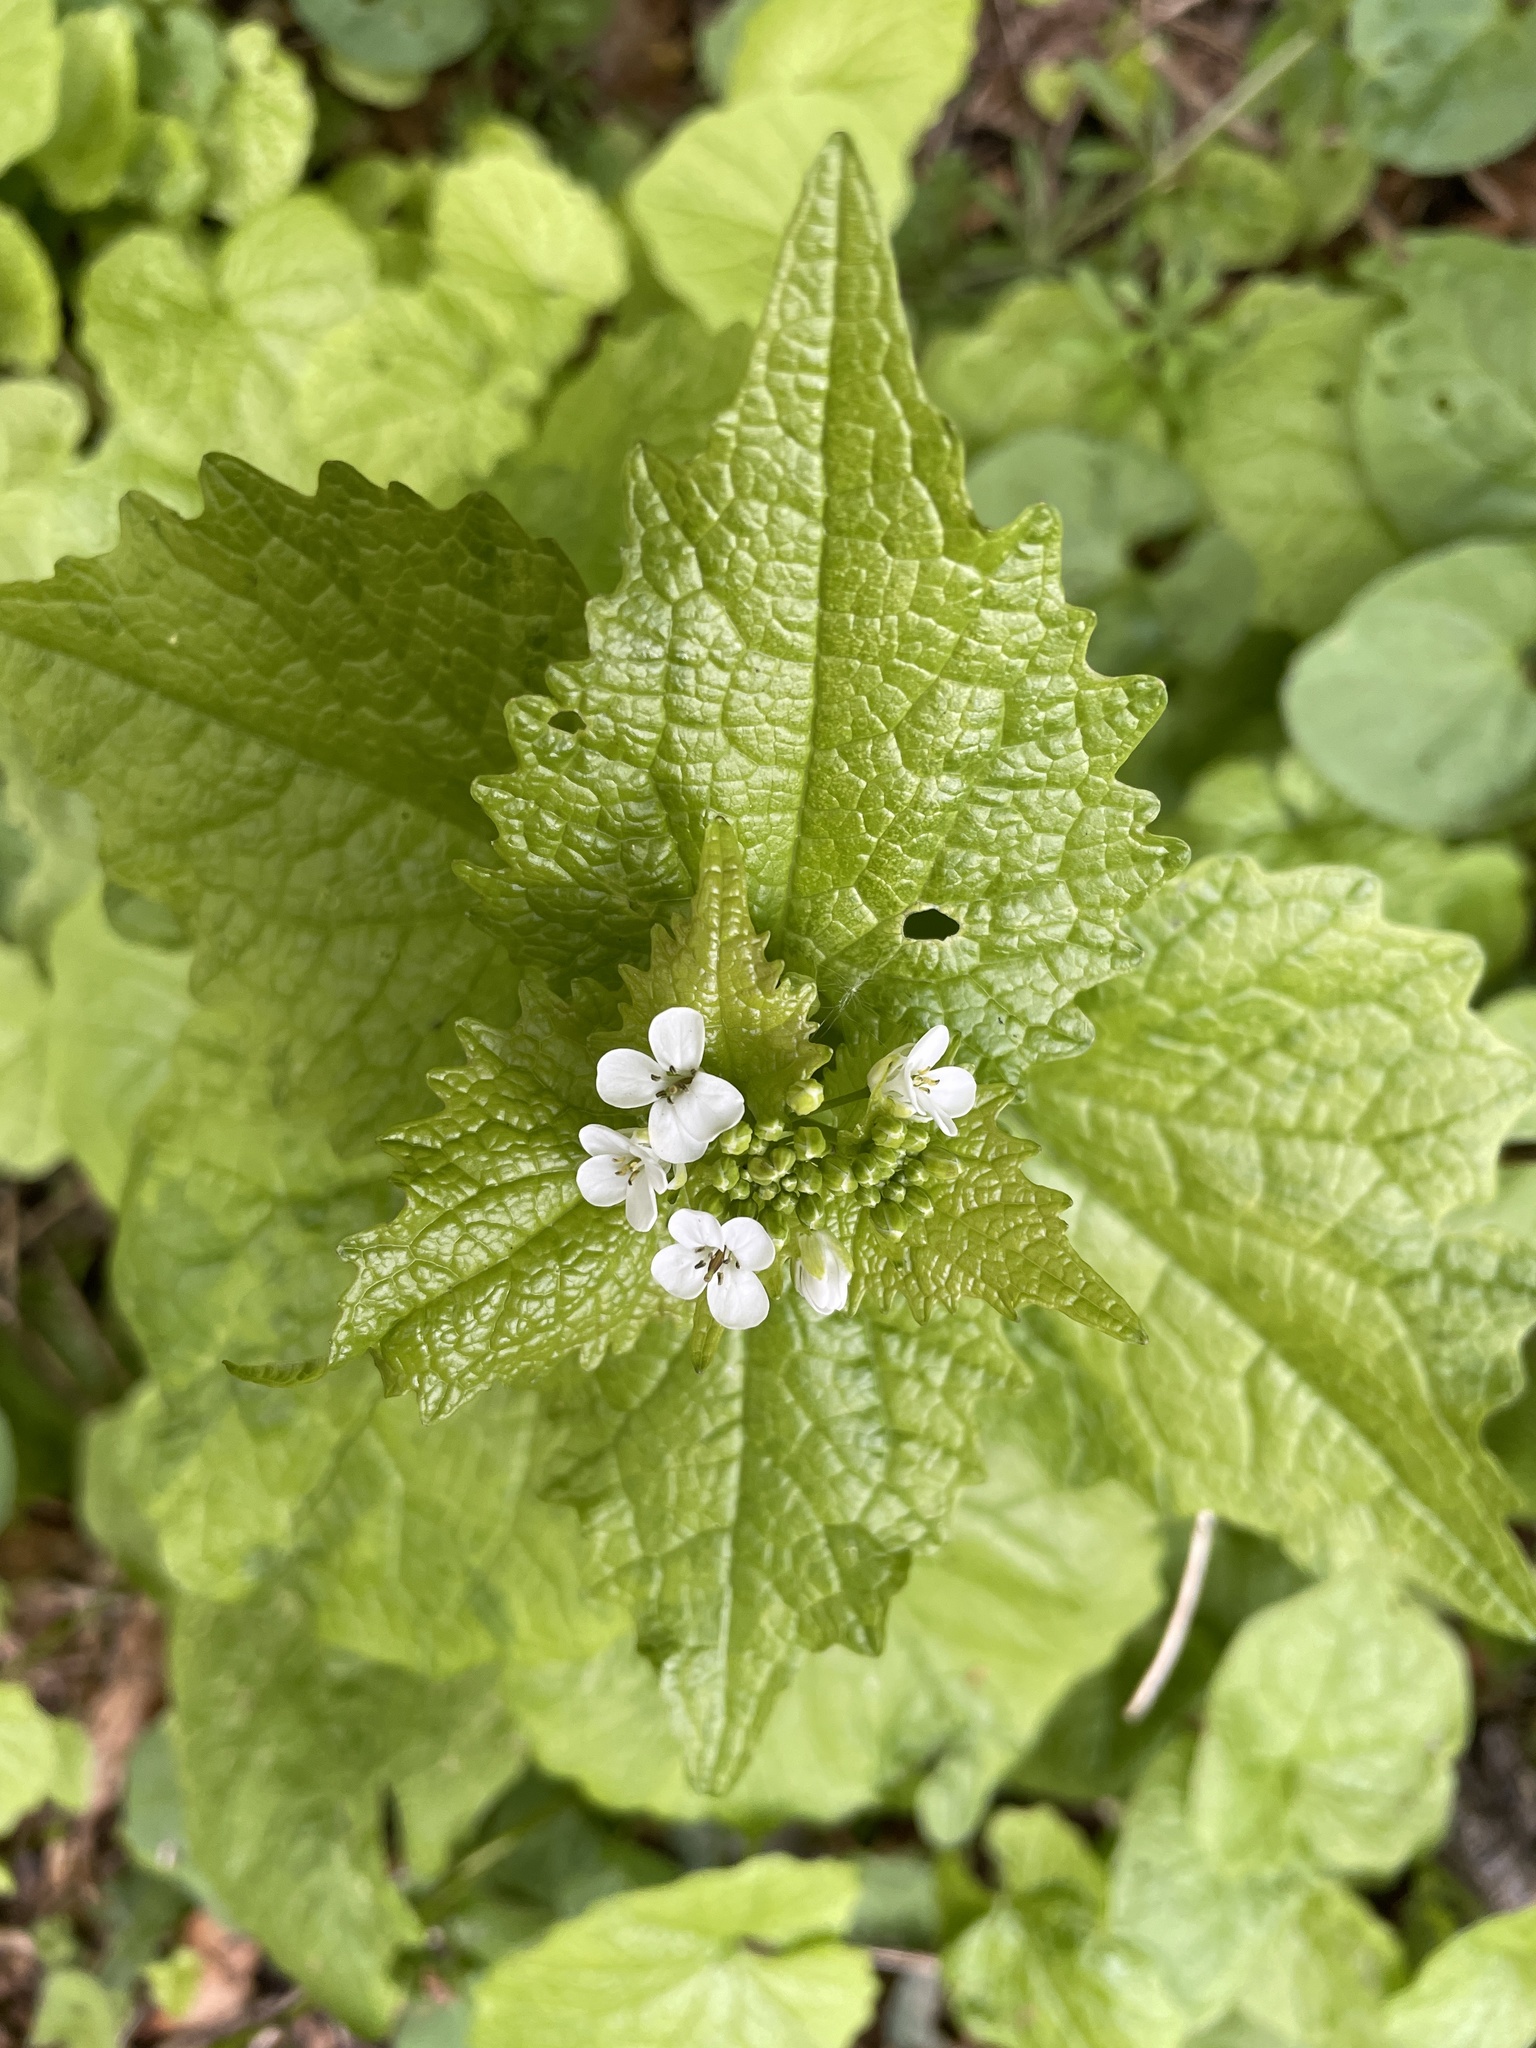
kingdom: Plantae
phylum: Tracheophyta
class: Magnoliopsida
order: Brassicales
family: Brassicaceae
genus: Alliaria
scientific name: Alliaria petiolata
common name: Garlic mustard
